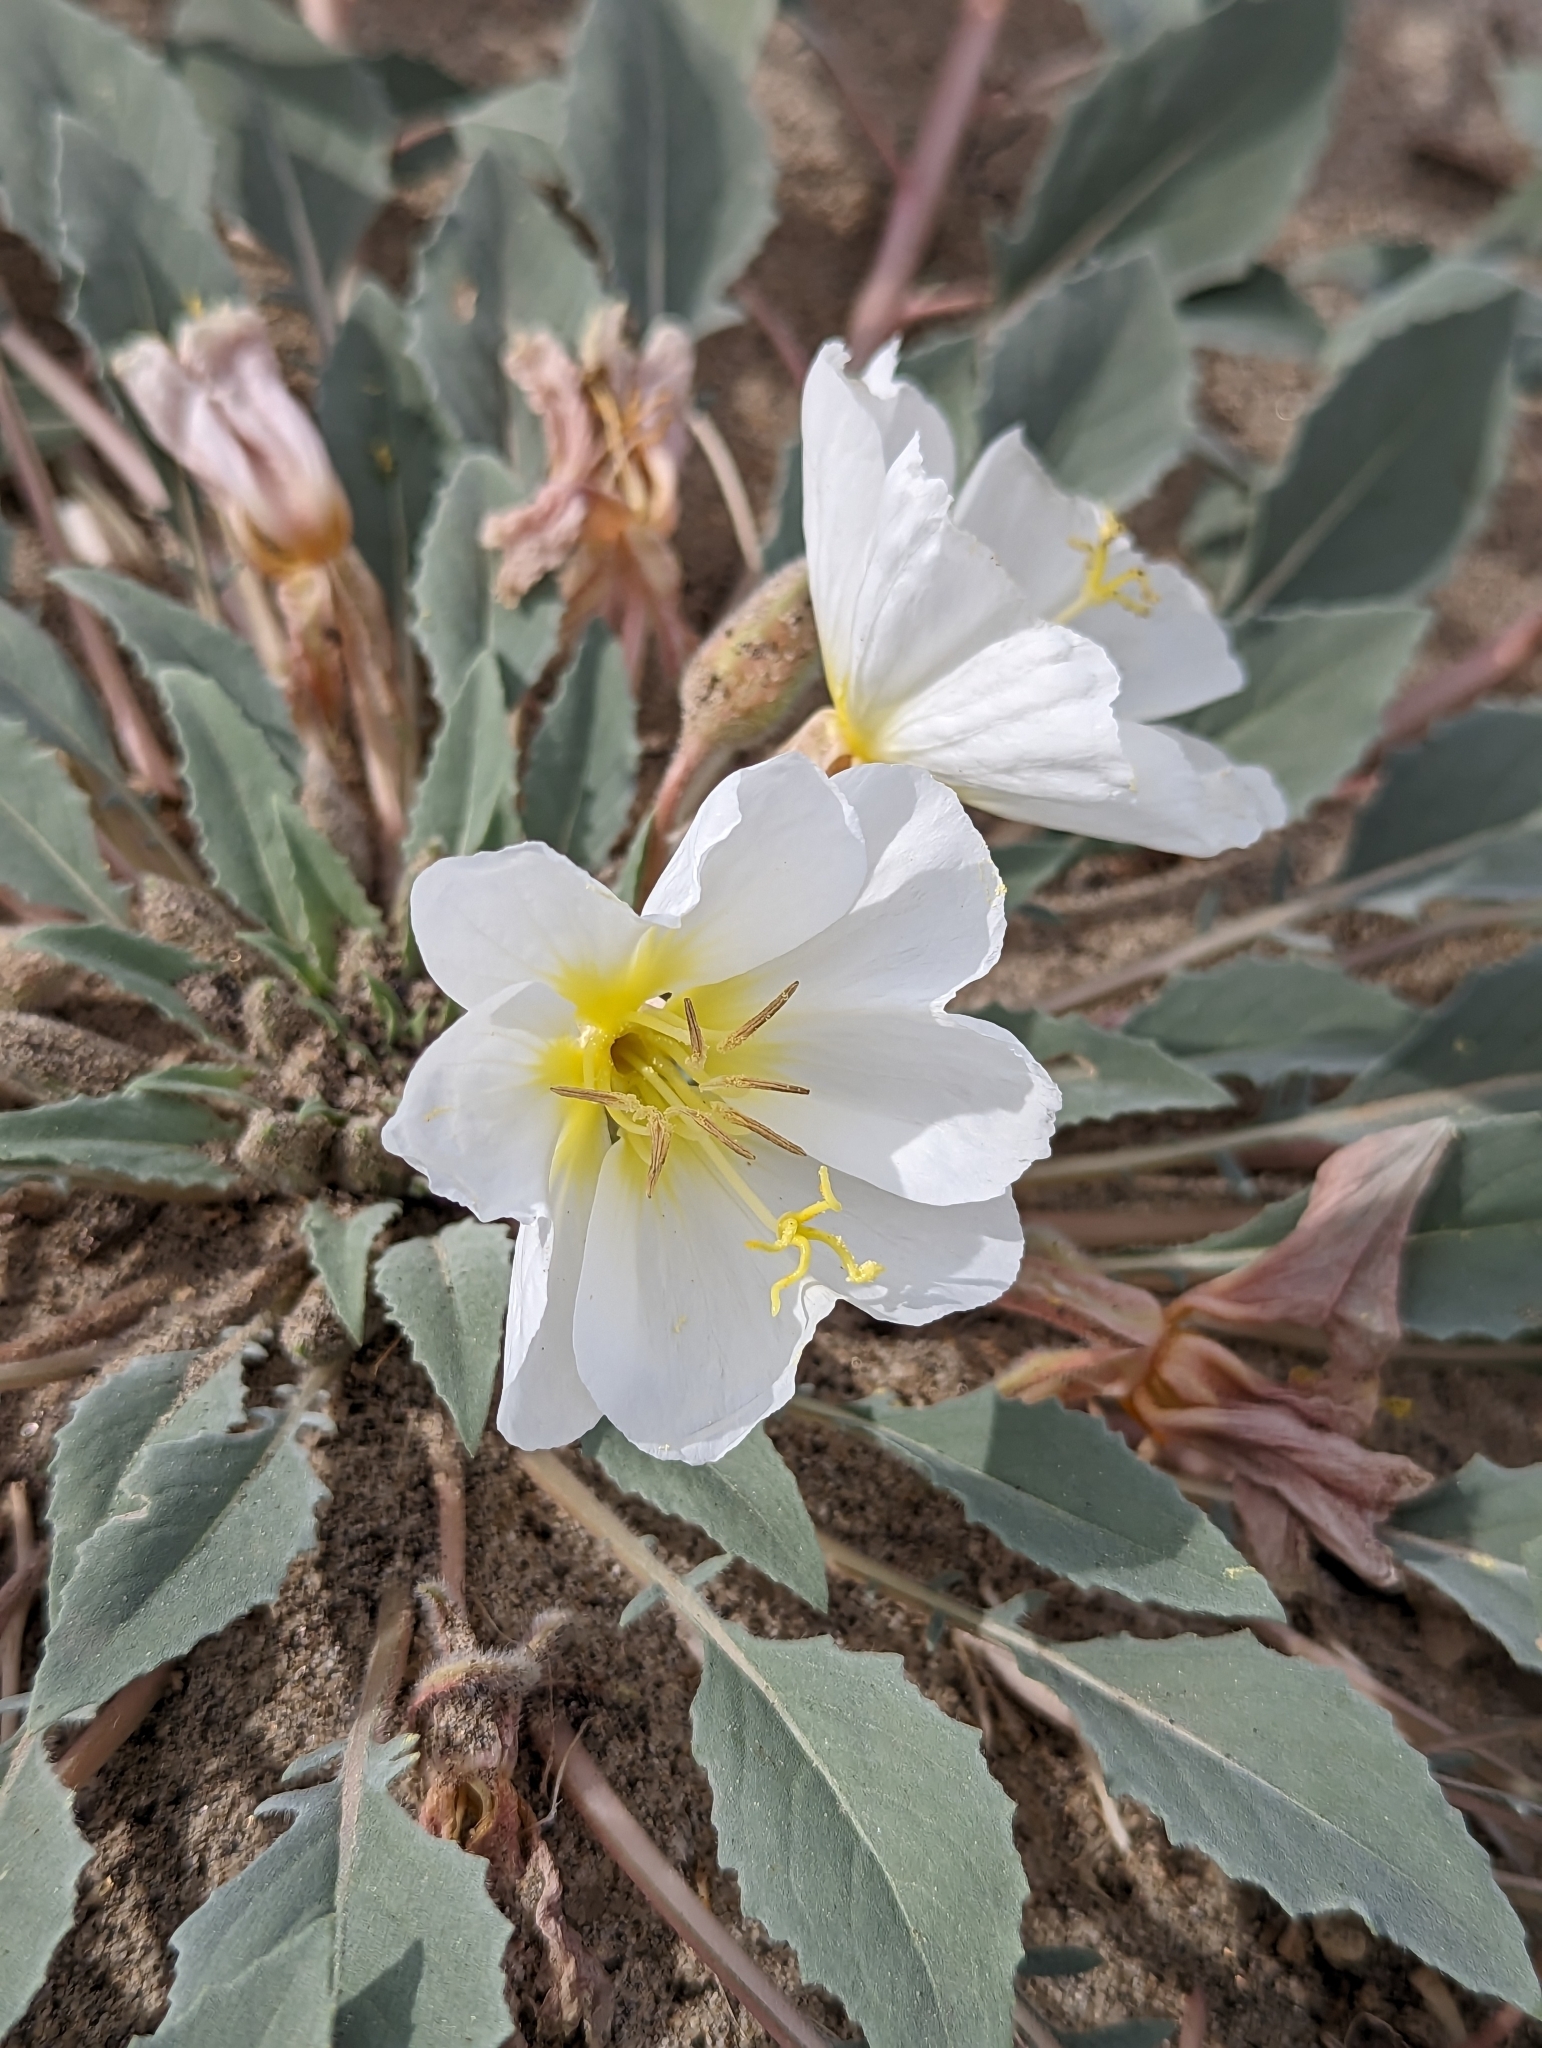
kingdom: Plantae
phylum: Tracheophyta
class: Magnoliopsida
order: Myrtales
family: Onagraceae
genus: Oenothera
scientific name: Oenothera deltoides
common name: Basket evening-primrose
